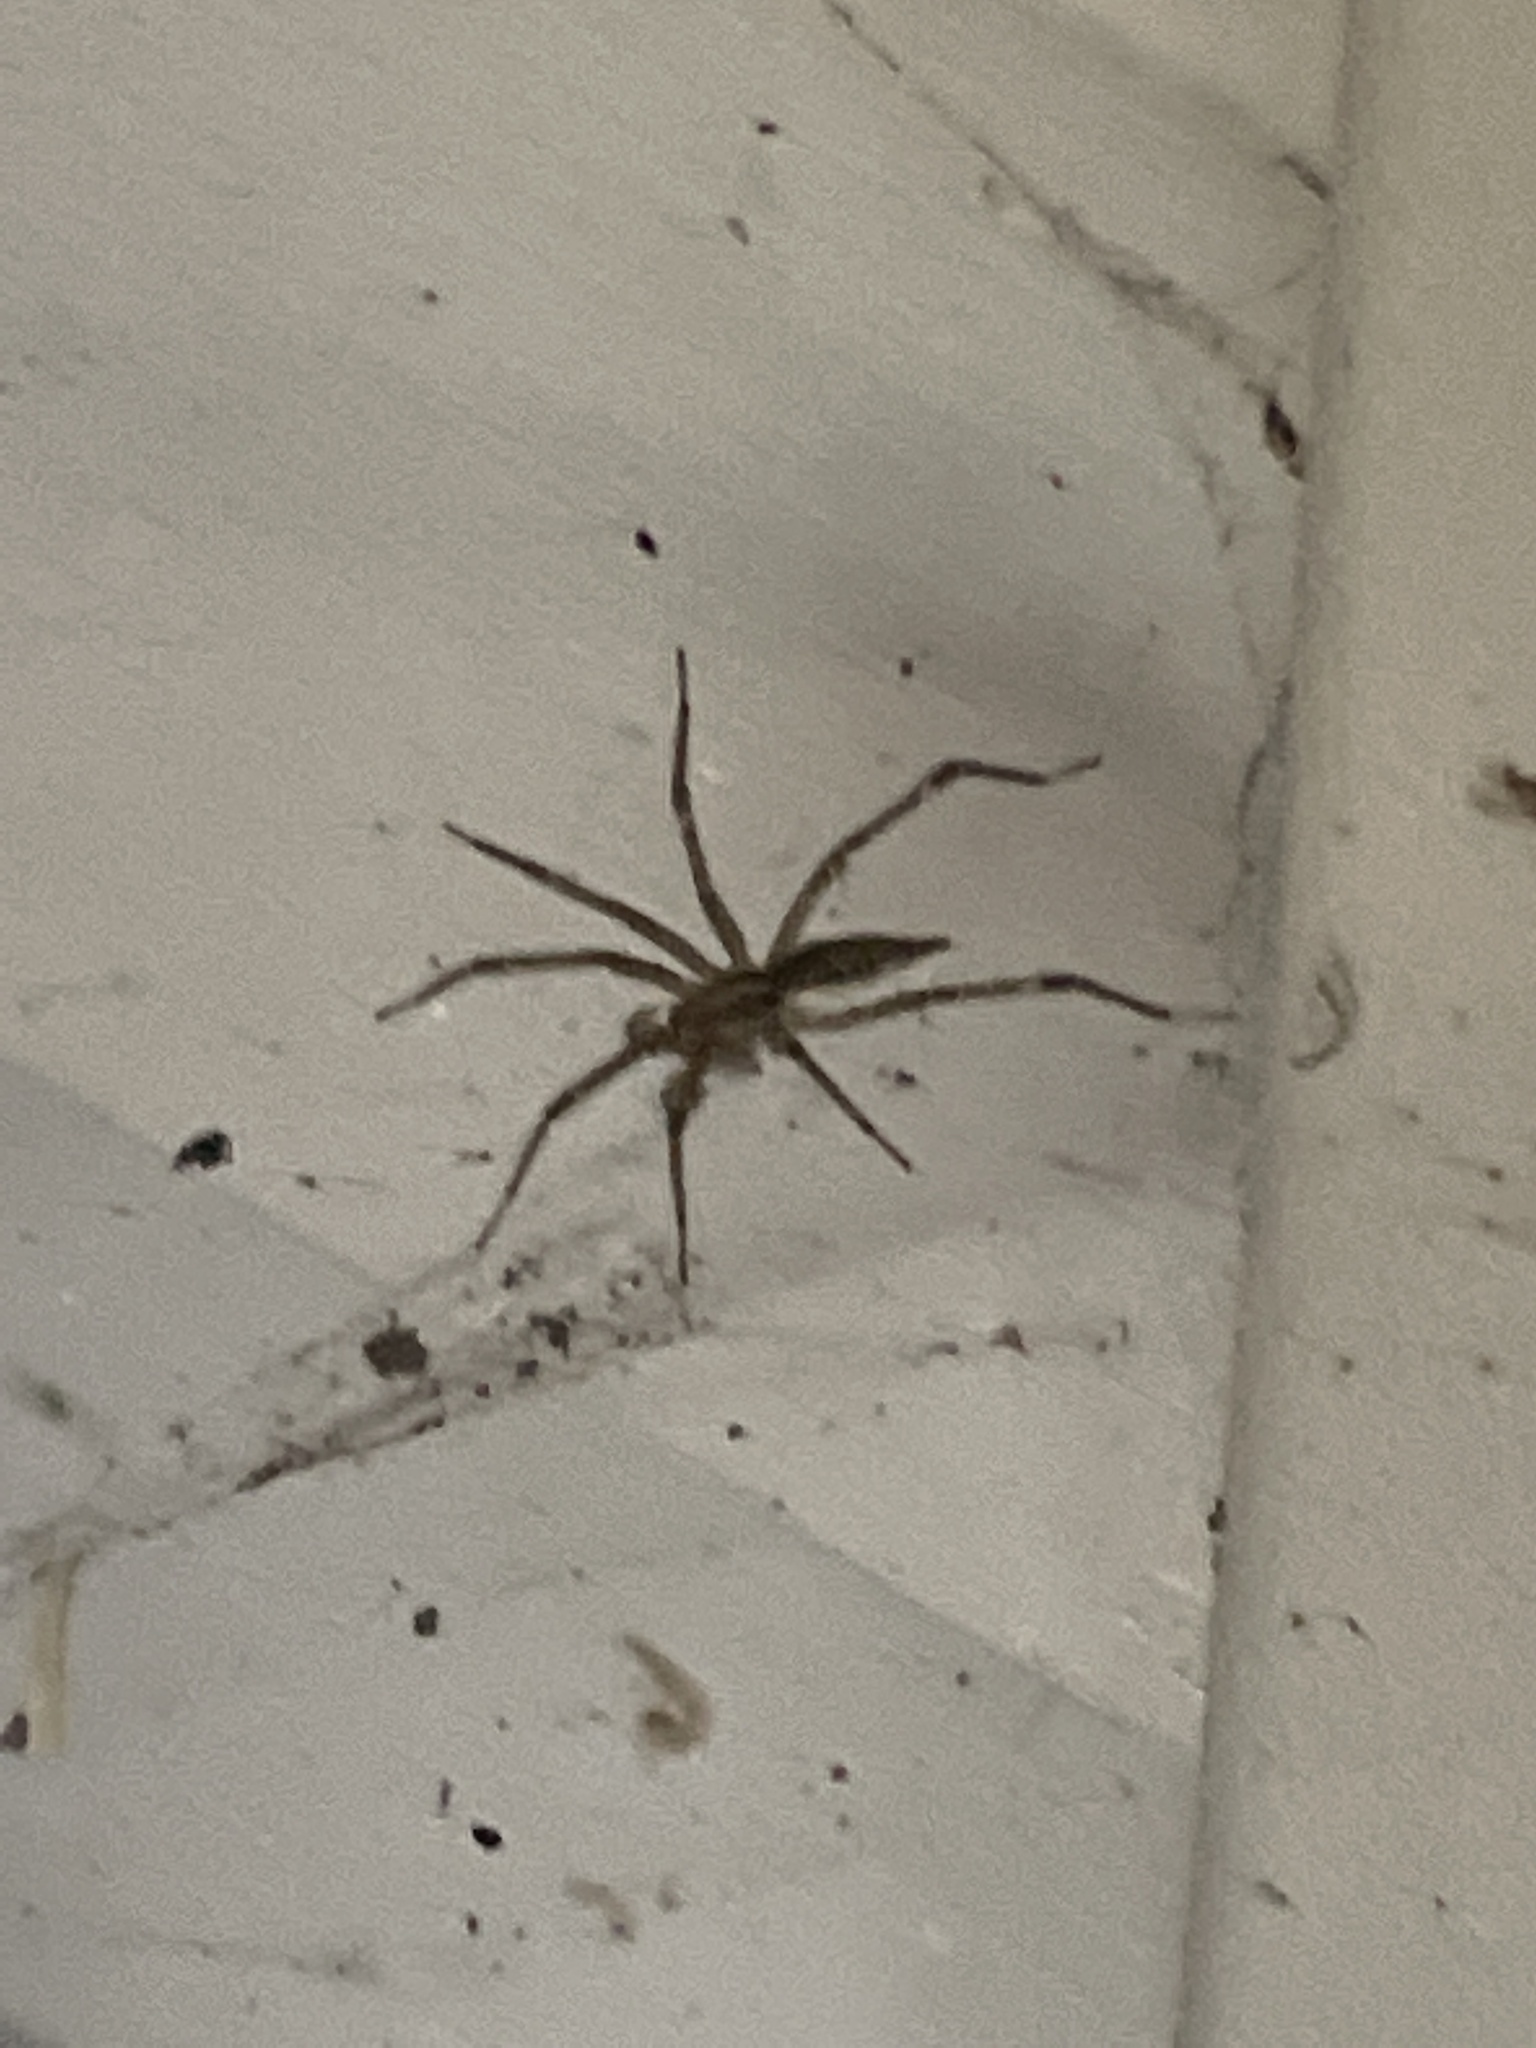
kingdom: Animalia
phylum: Arthropoda
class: Arachnida
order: Araneae
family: Agelenidae
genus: Agelenopsis
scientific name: Agelenopsis
